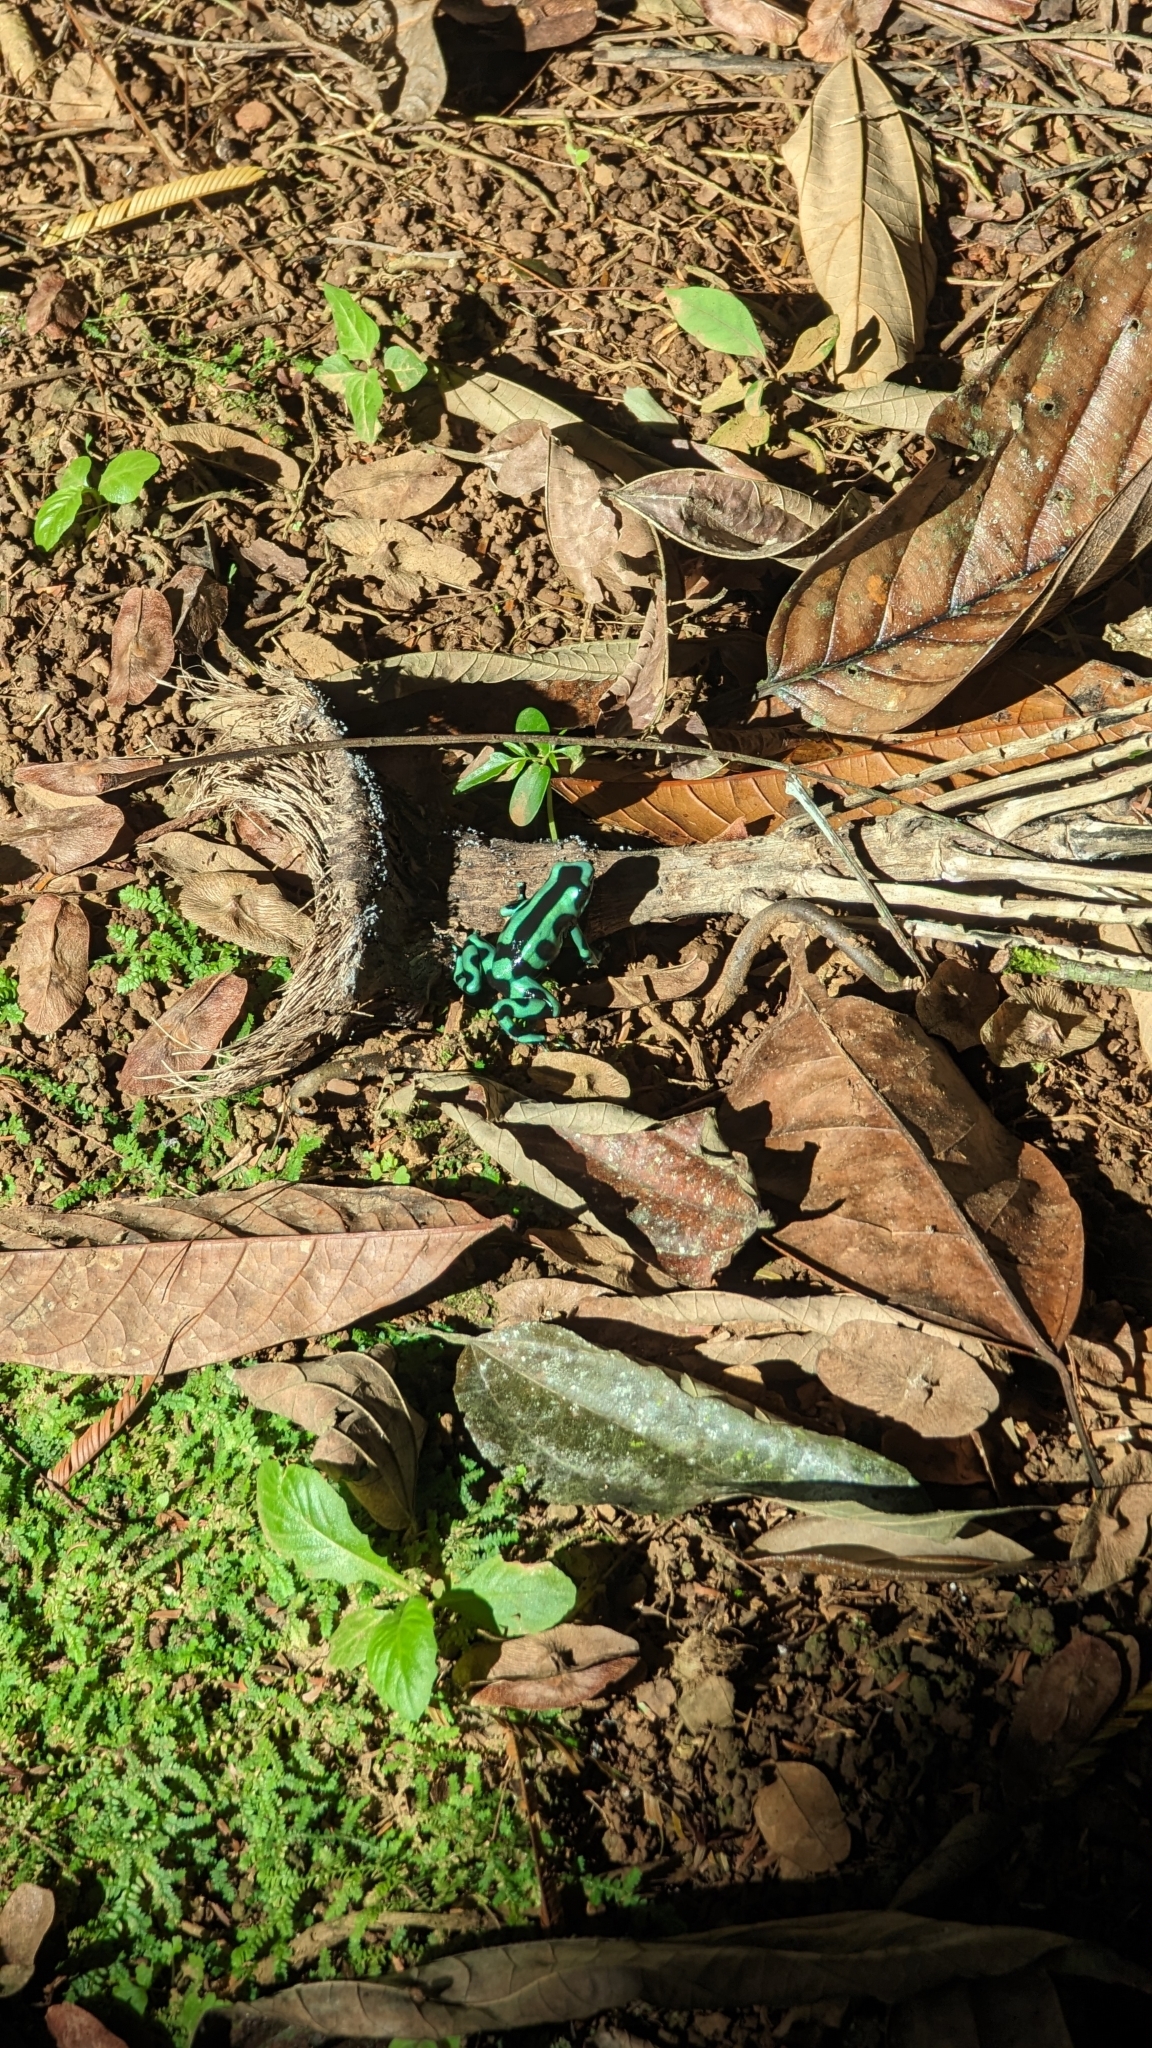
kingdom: Animalia
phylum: Chordata
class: Amphibia
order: Anura
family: Dendrobatidae
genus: Dendrobates
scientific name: Dendrobates auratus
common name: Green and black poison dart frog
